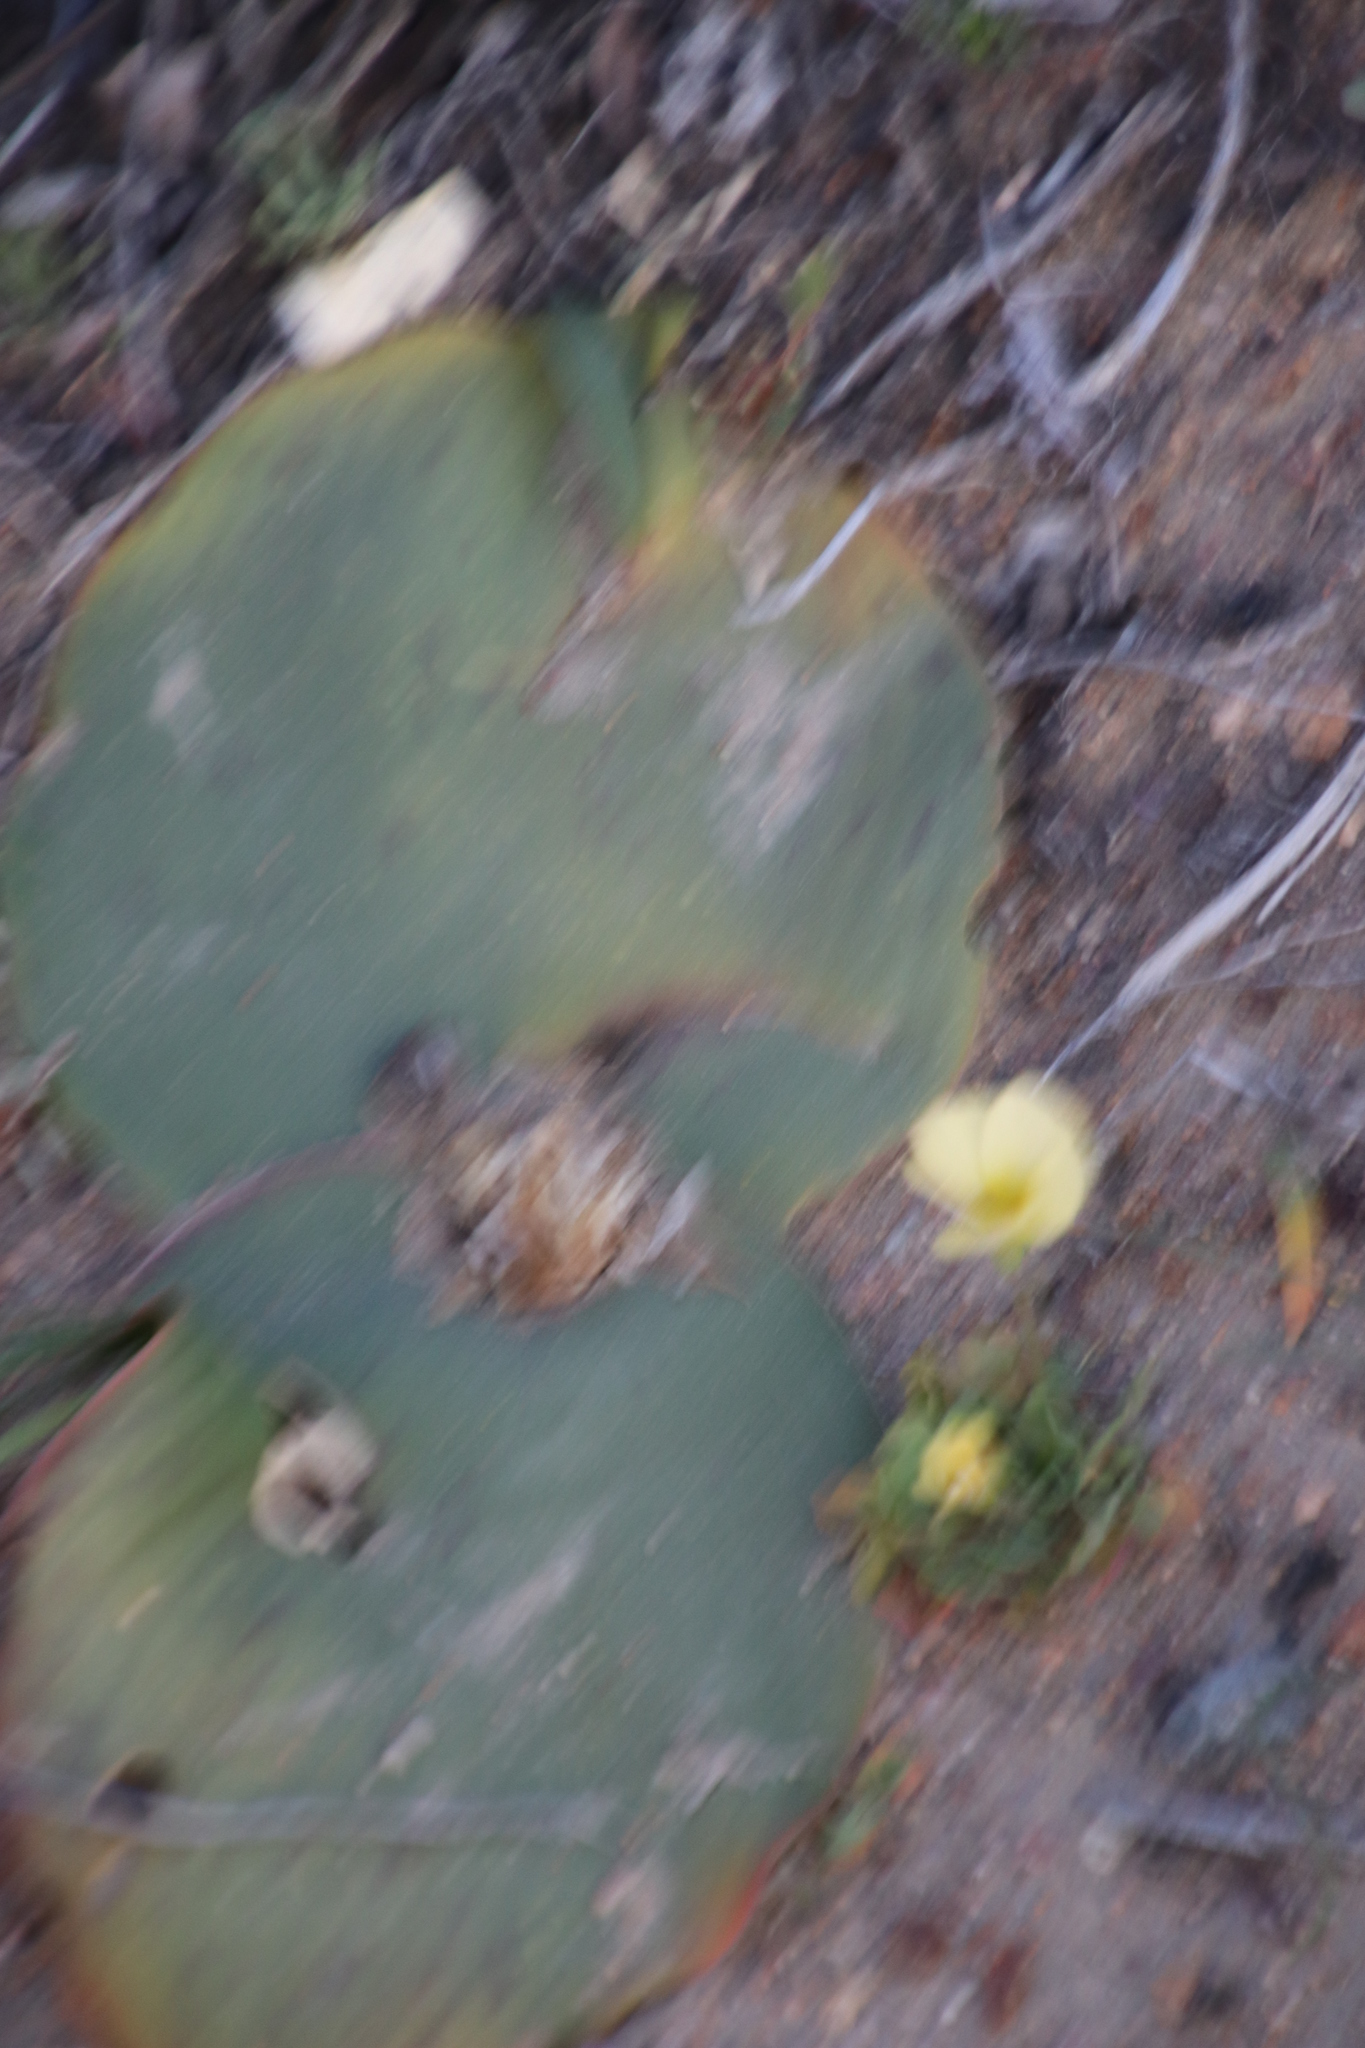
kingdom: Plantae
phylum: Tracheophyta
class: Liliopsida
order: Asparagales
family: Asparagaceae
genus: Massonia
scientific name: Massonia depressa
